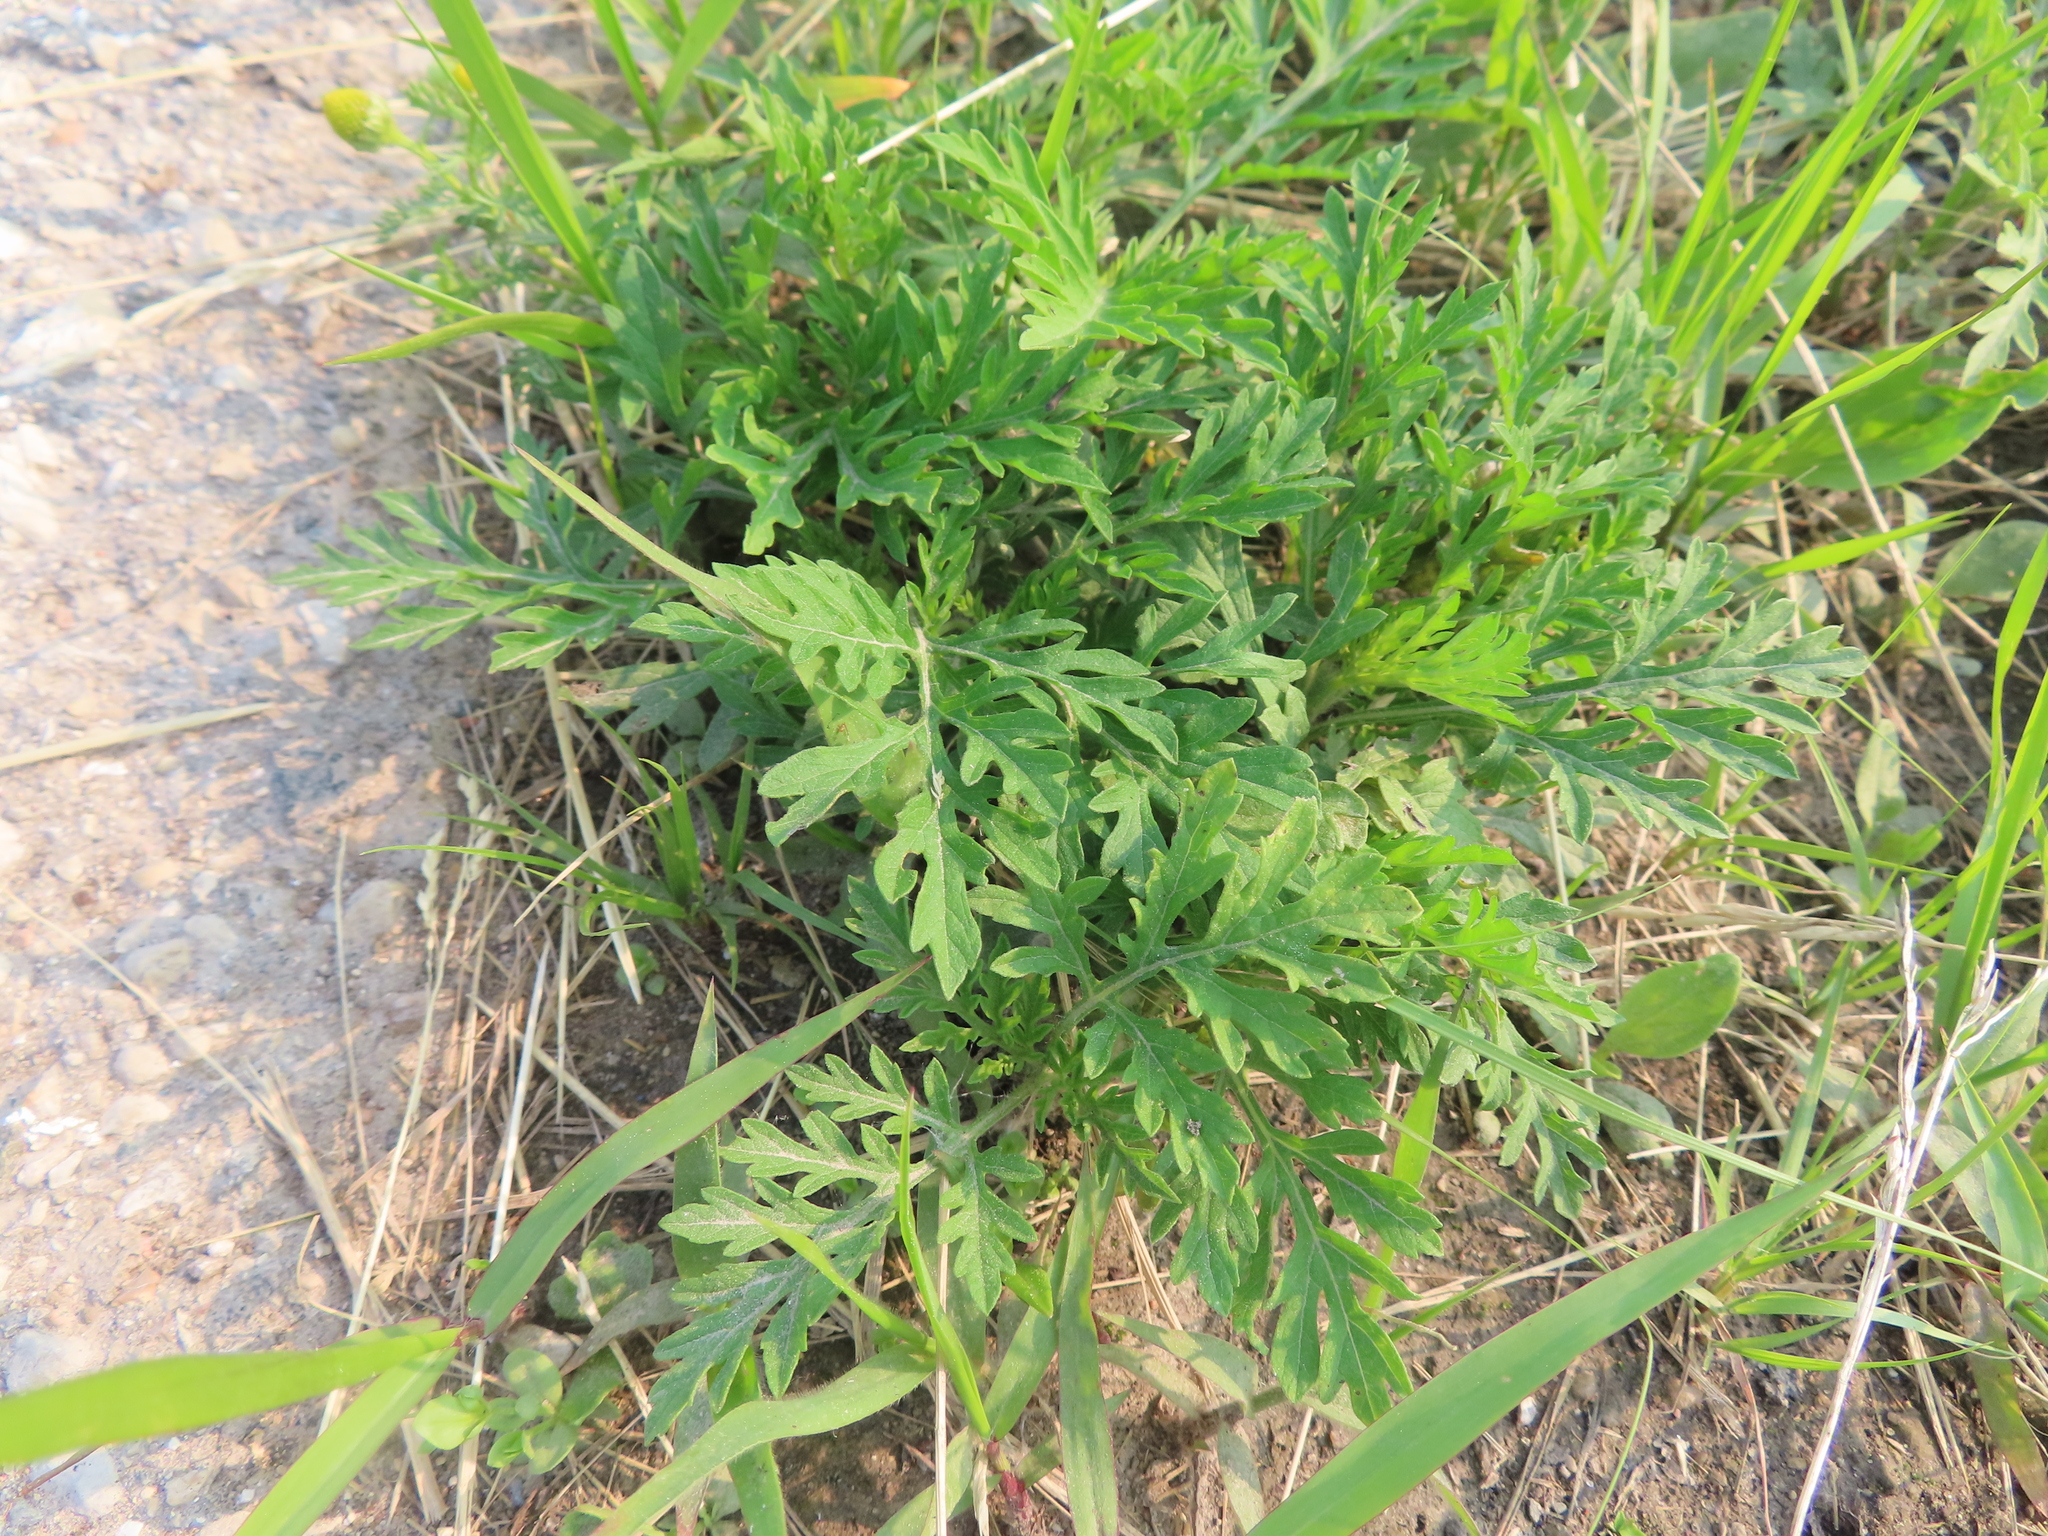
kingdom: Plantae
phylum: Tracheophyta
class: Magnoliopsida
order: Asterales
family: Asteraceae
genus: Ambrosia
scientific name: Ambrosia artemisiifolia
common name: Annual ragweed
